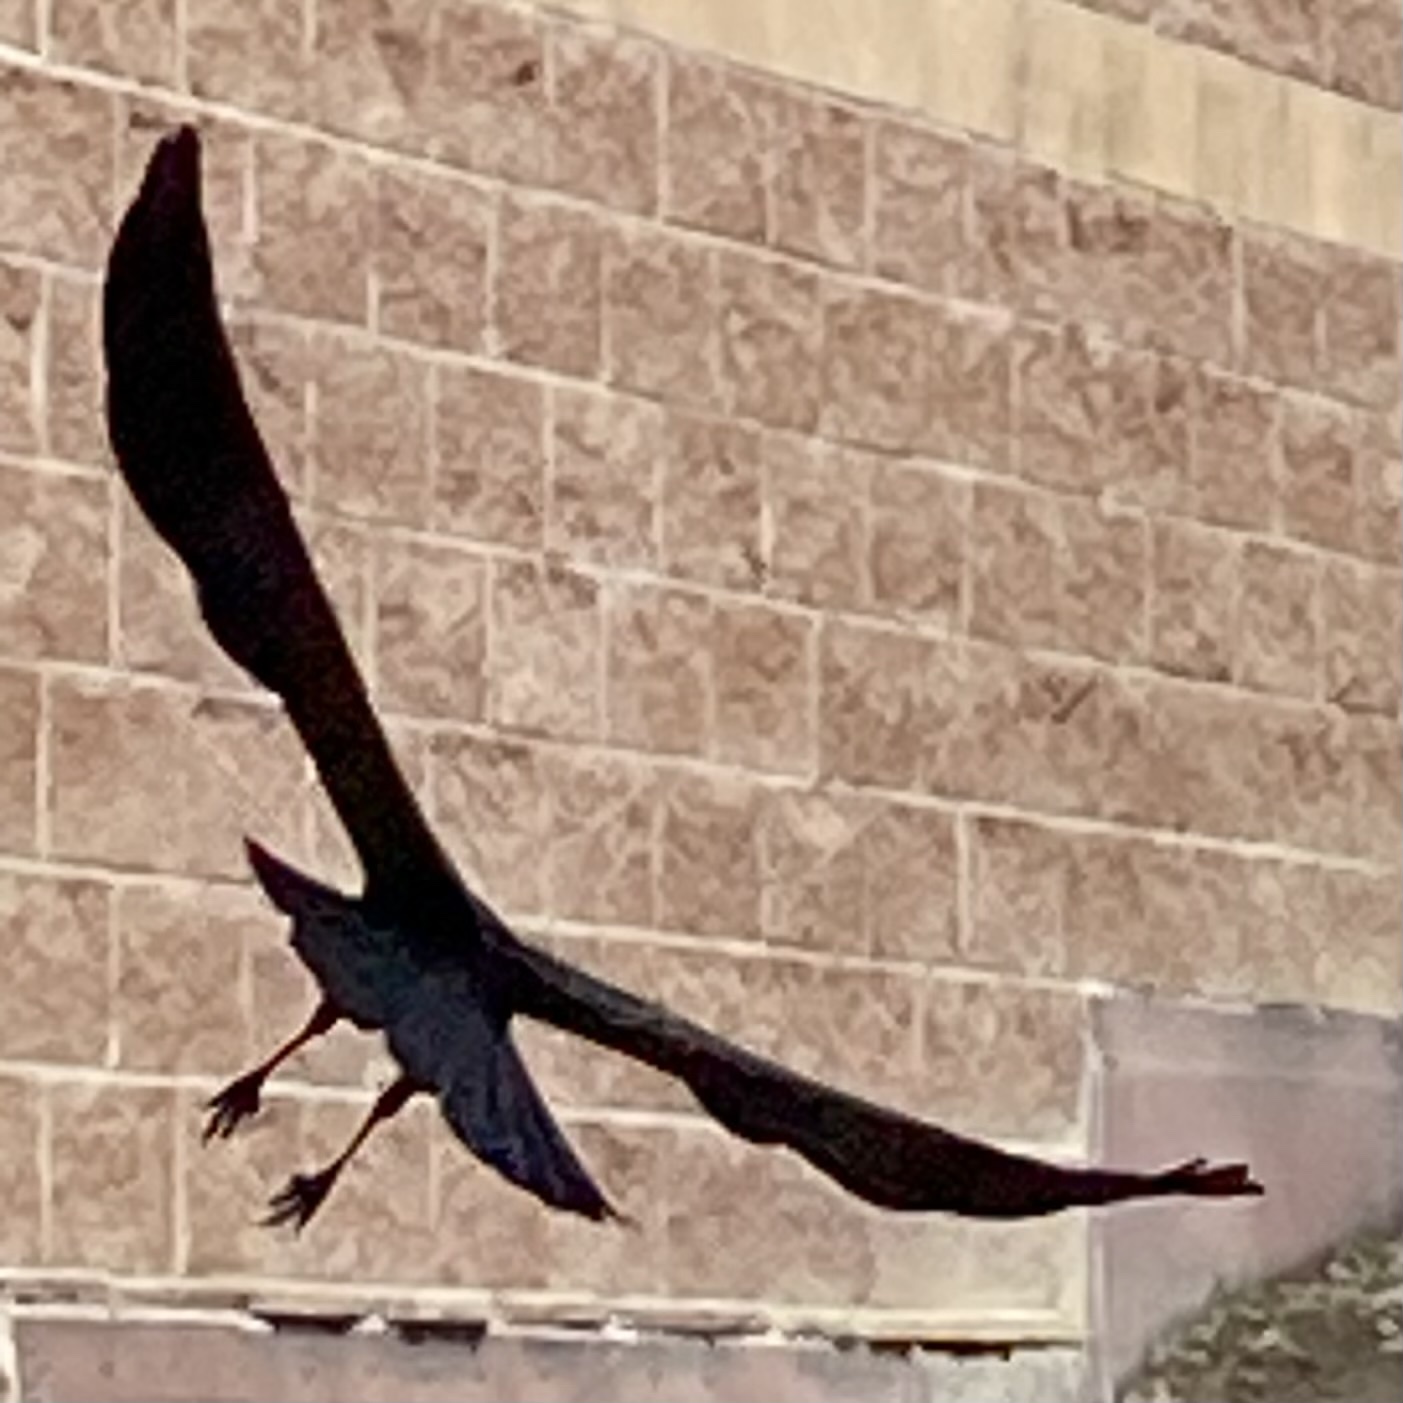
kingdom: Animalia
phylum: Chordata
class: Aves
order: Passeriformes
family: Corvidae
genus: Corvus
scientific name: Corvus brachyrhynchos
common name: American crow
